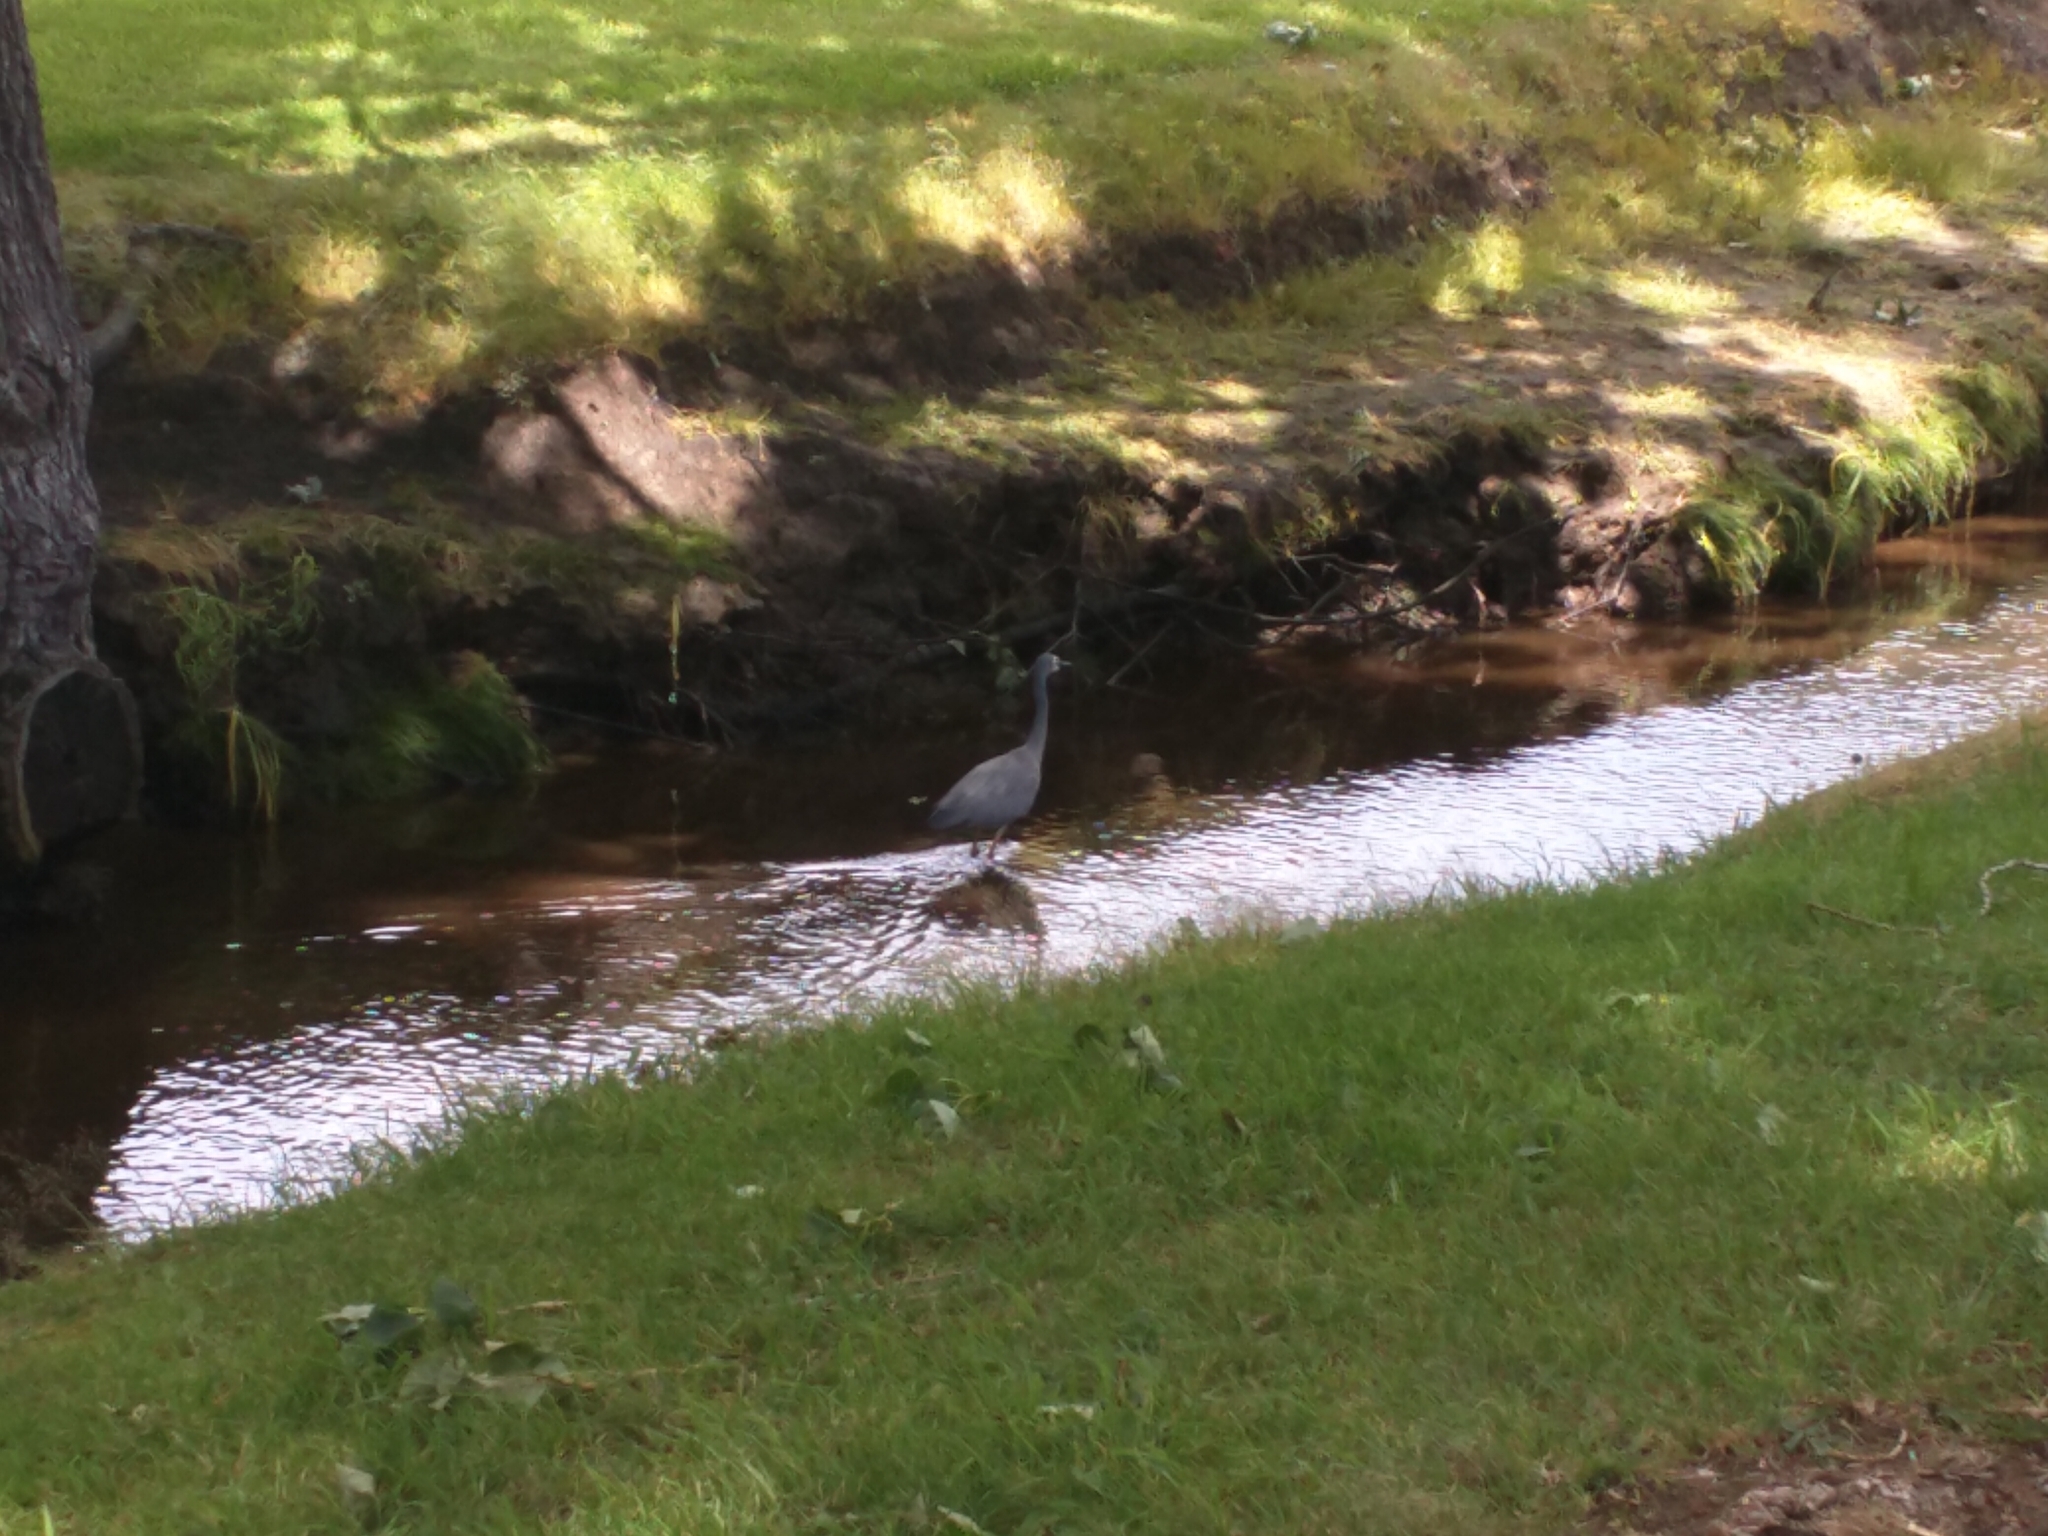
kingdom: Animalia
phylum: Chordata
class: Aves
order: Pelecaniformes
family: Ardeidae
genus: Egretta
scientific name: Egretta novaehollandiae
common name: White-faced heron
